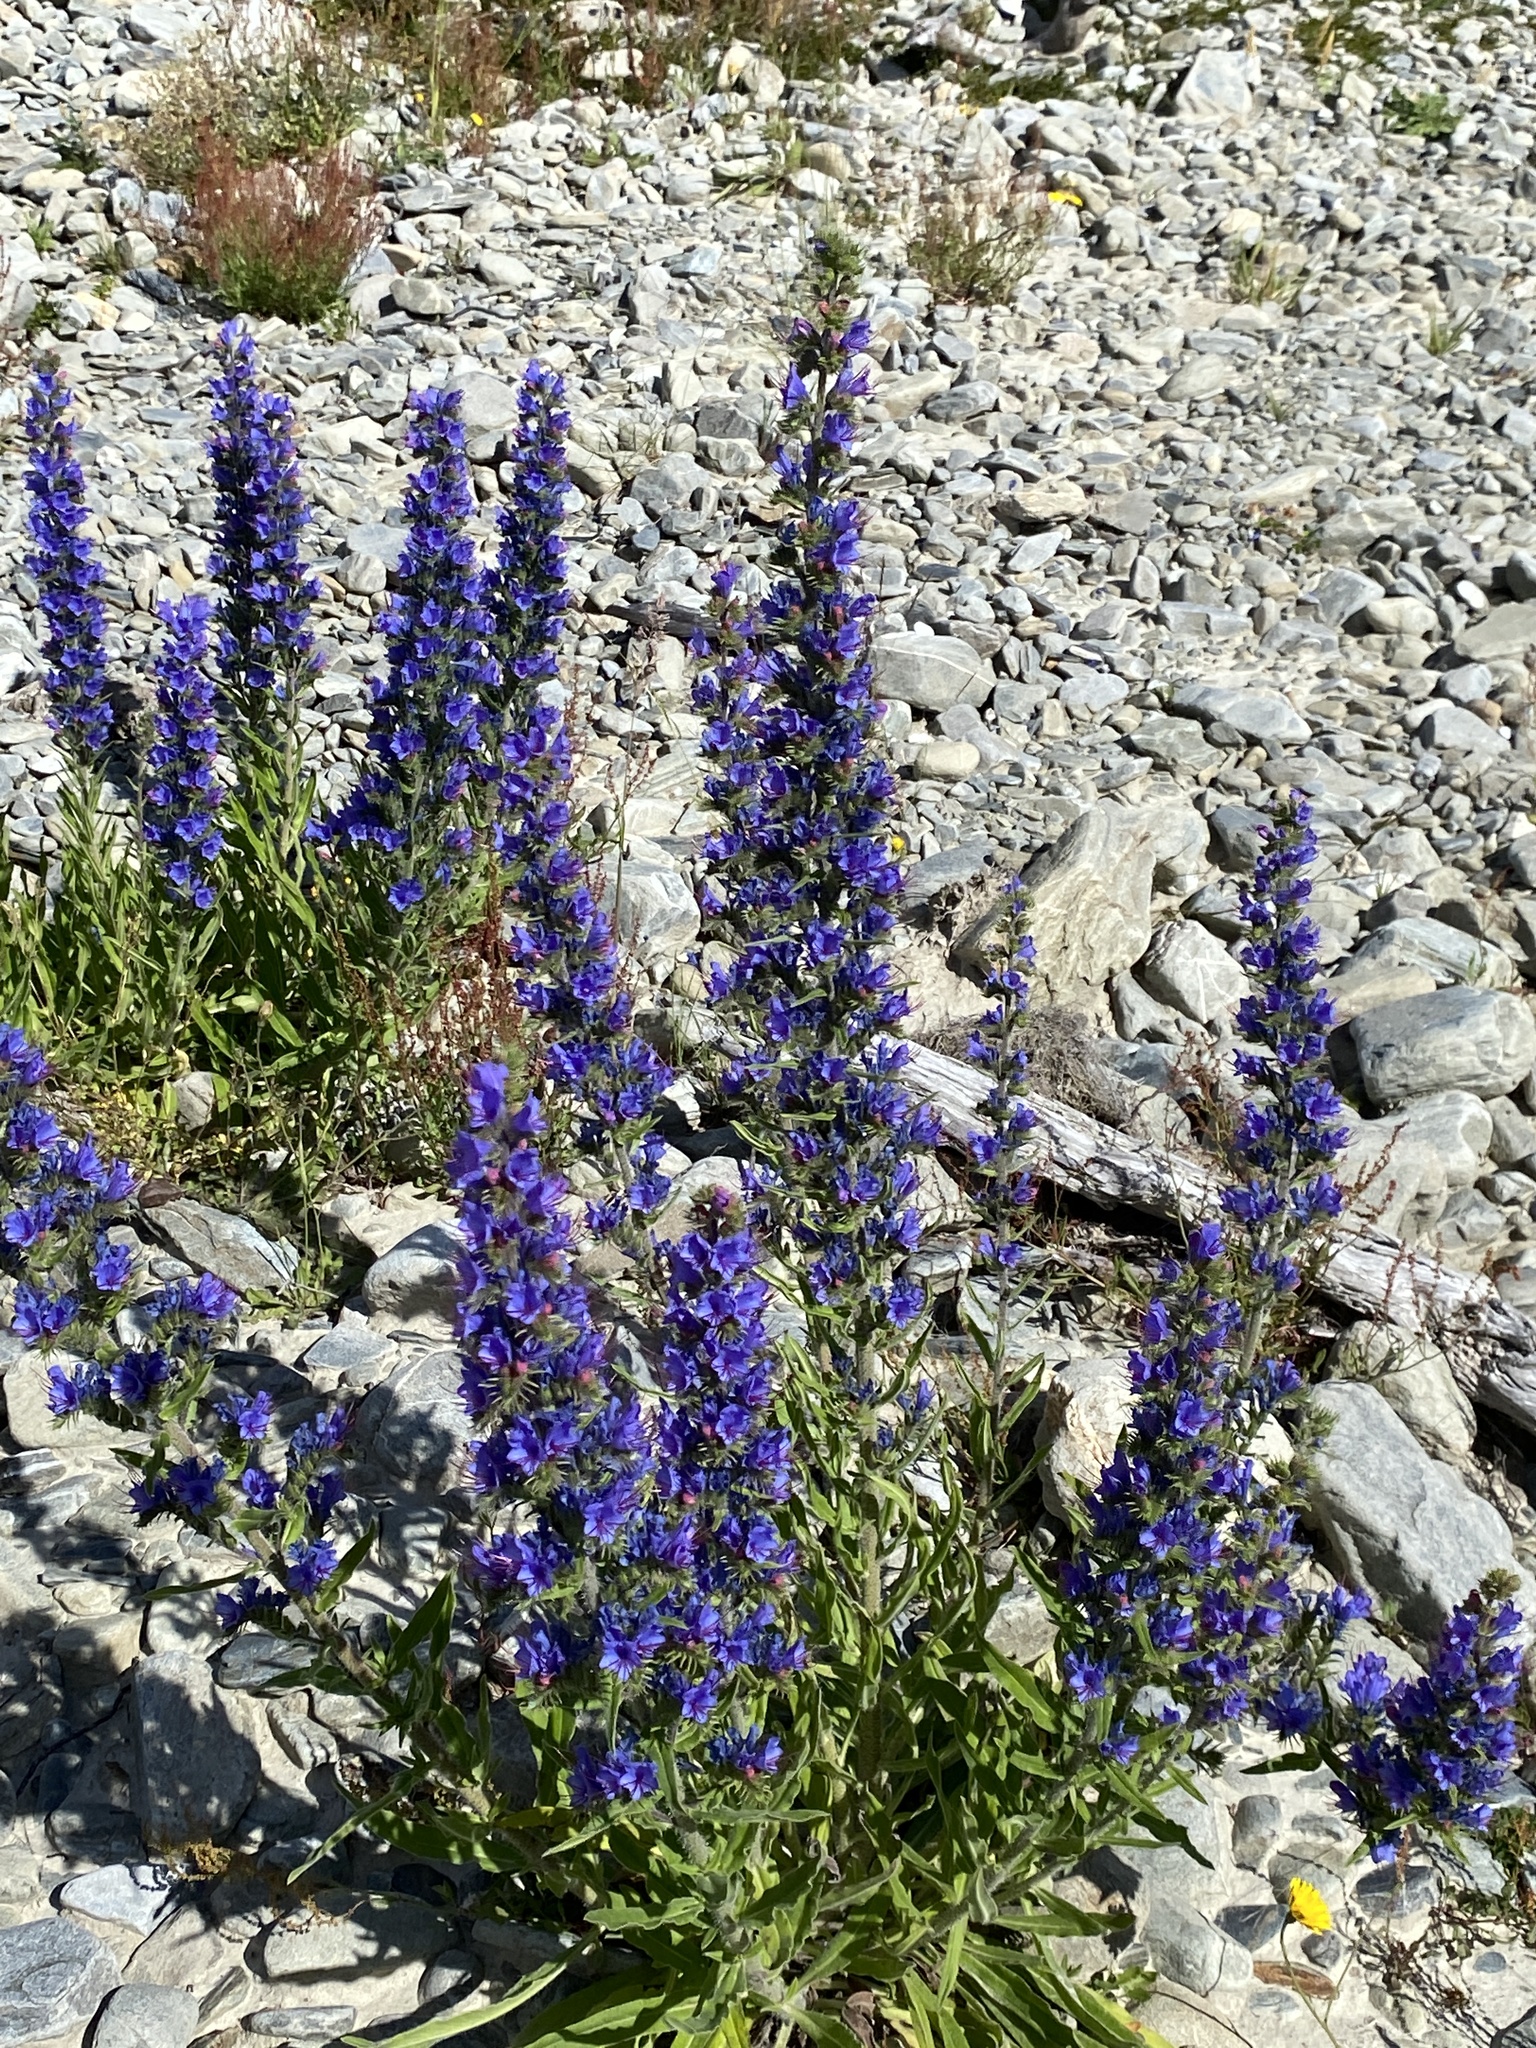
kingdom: Plantae
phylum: Tracheophyta
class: Magnoliopsida
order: Boraginales
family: Boraginaceae
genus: Echium
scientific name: Echium vulgare
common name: Common viper's bugloss
